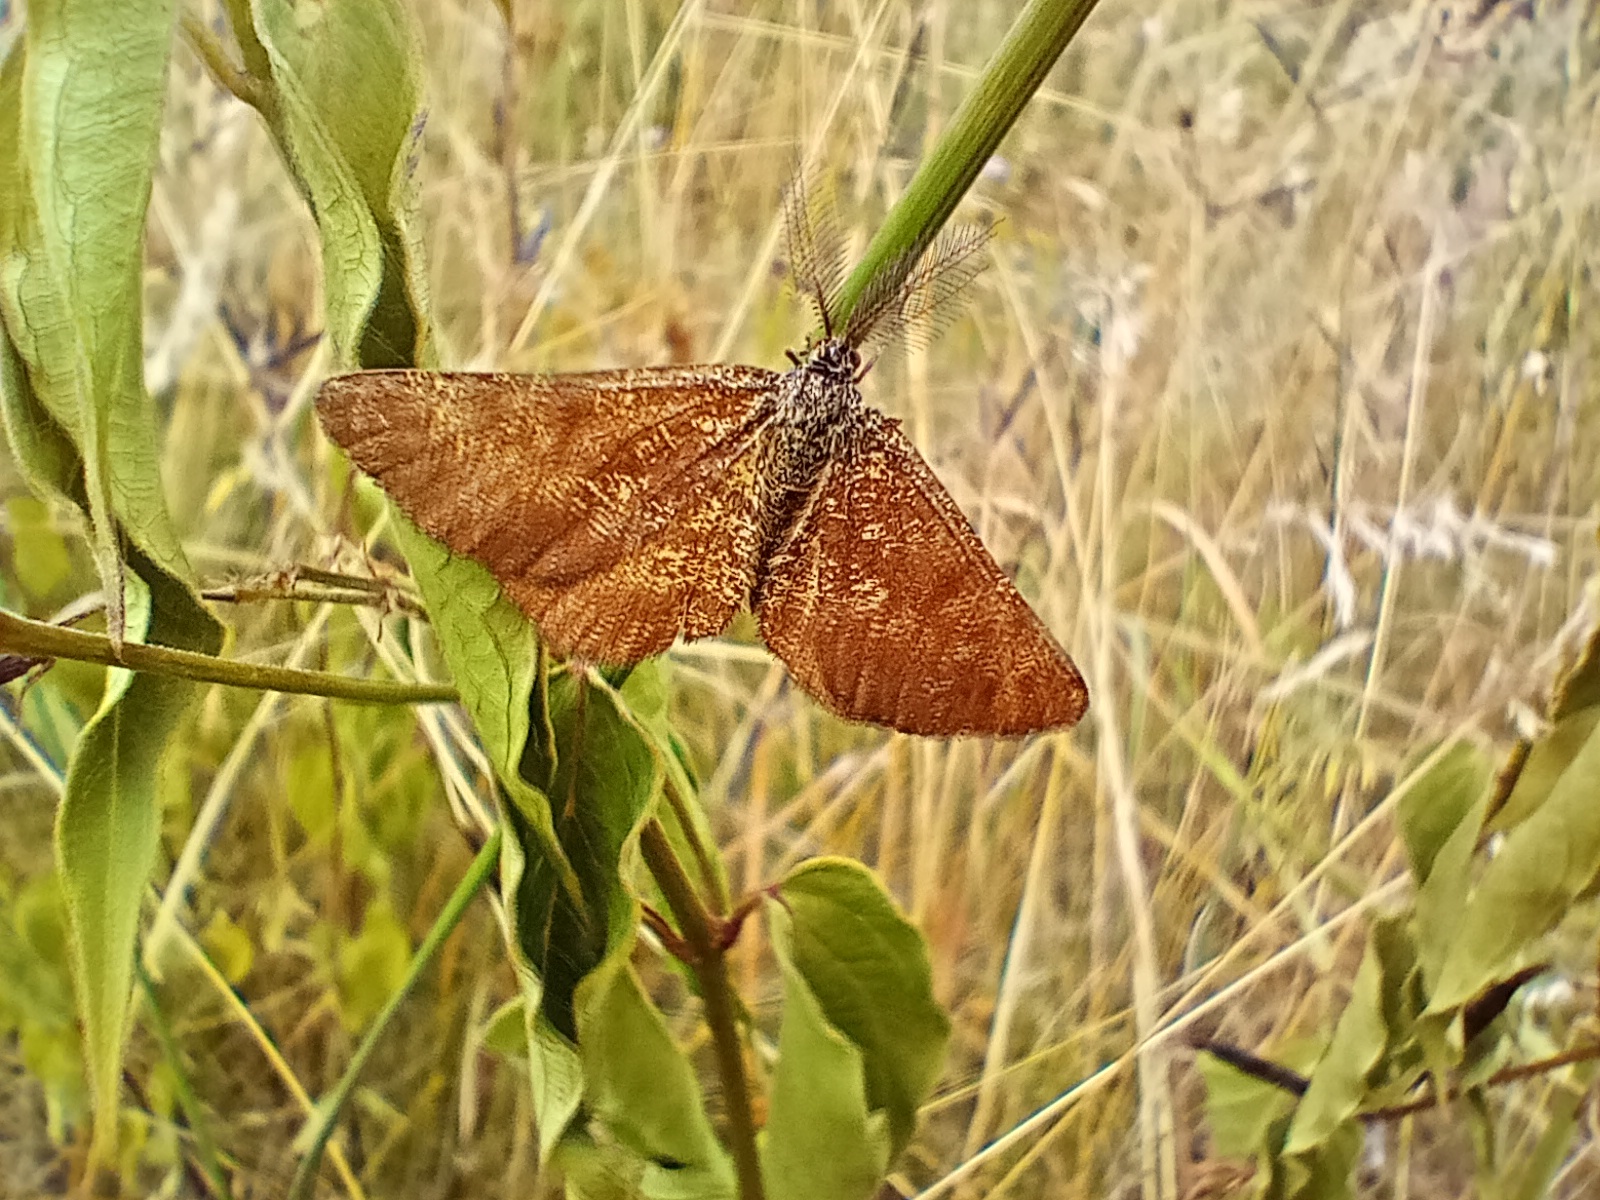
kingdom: Animalia
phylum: Arthropoda
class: Insecta
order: Lepidoptera
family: Geometridae
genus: Ematurga
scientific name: Ematurga atomaria
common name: Common heath
